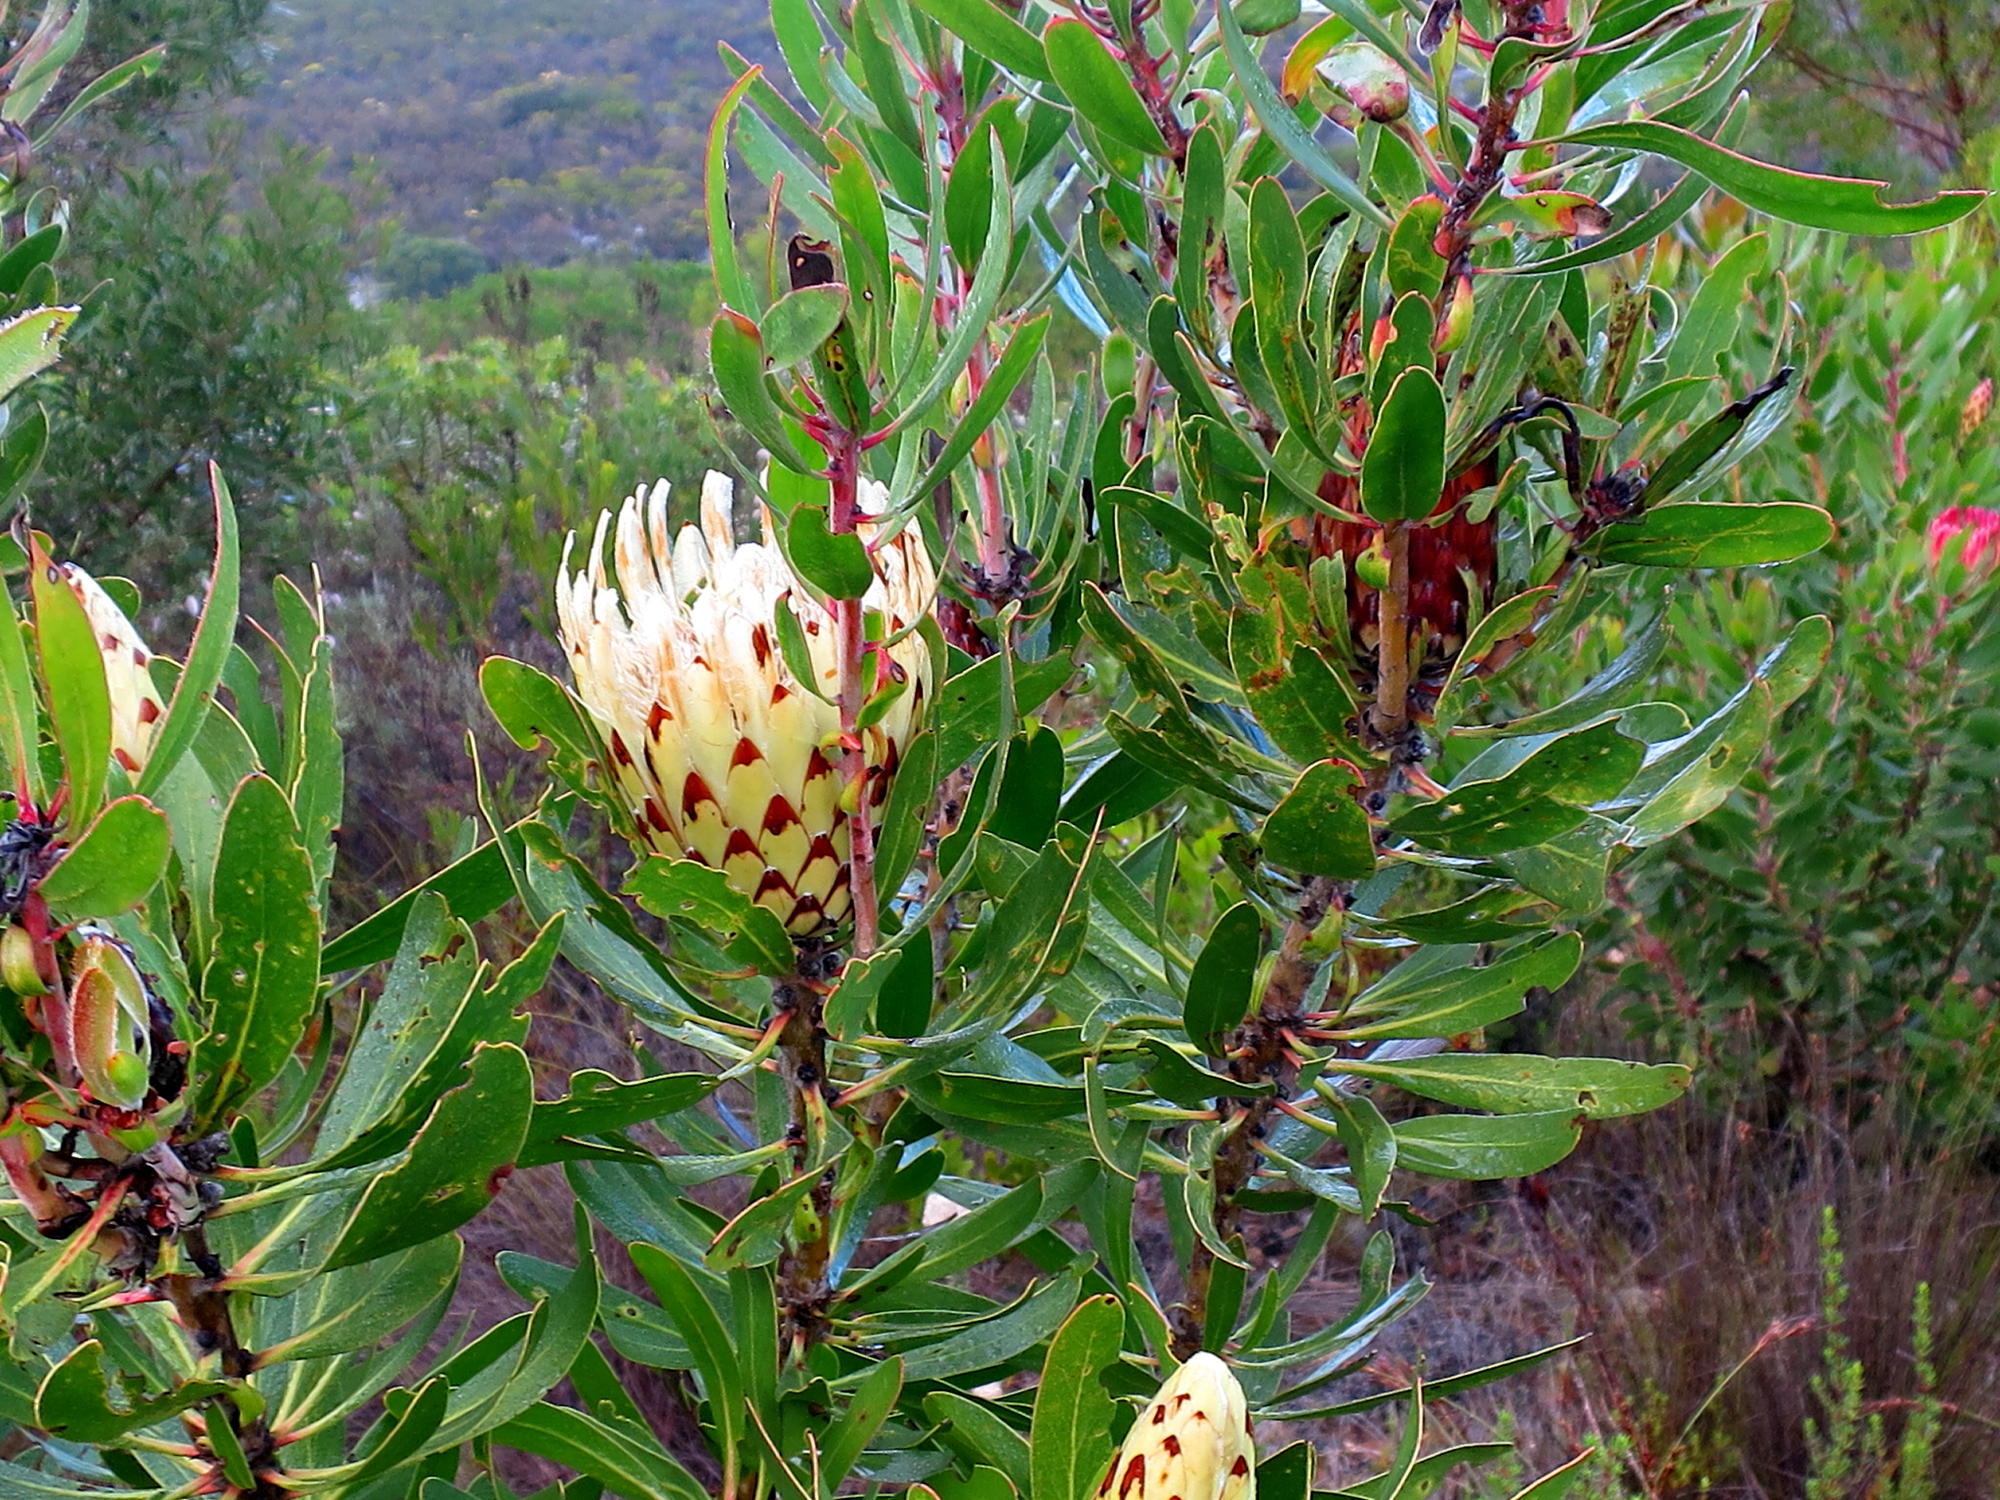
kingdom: Plantae
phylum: Tracheophyta
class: Magnoliopsida
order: Proteales
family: Proteaceae
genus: Protea
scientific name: Protea obtusifolia
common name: Bredasdorp sugarbush
